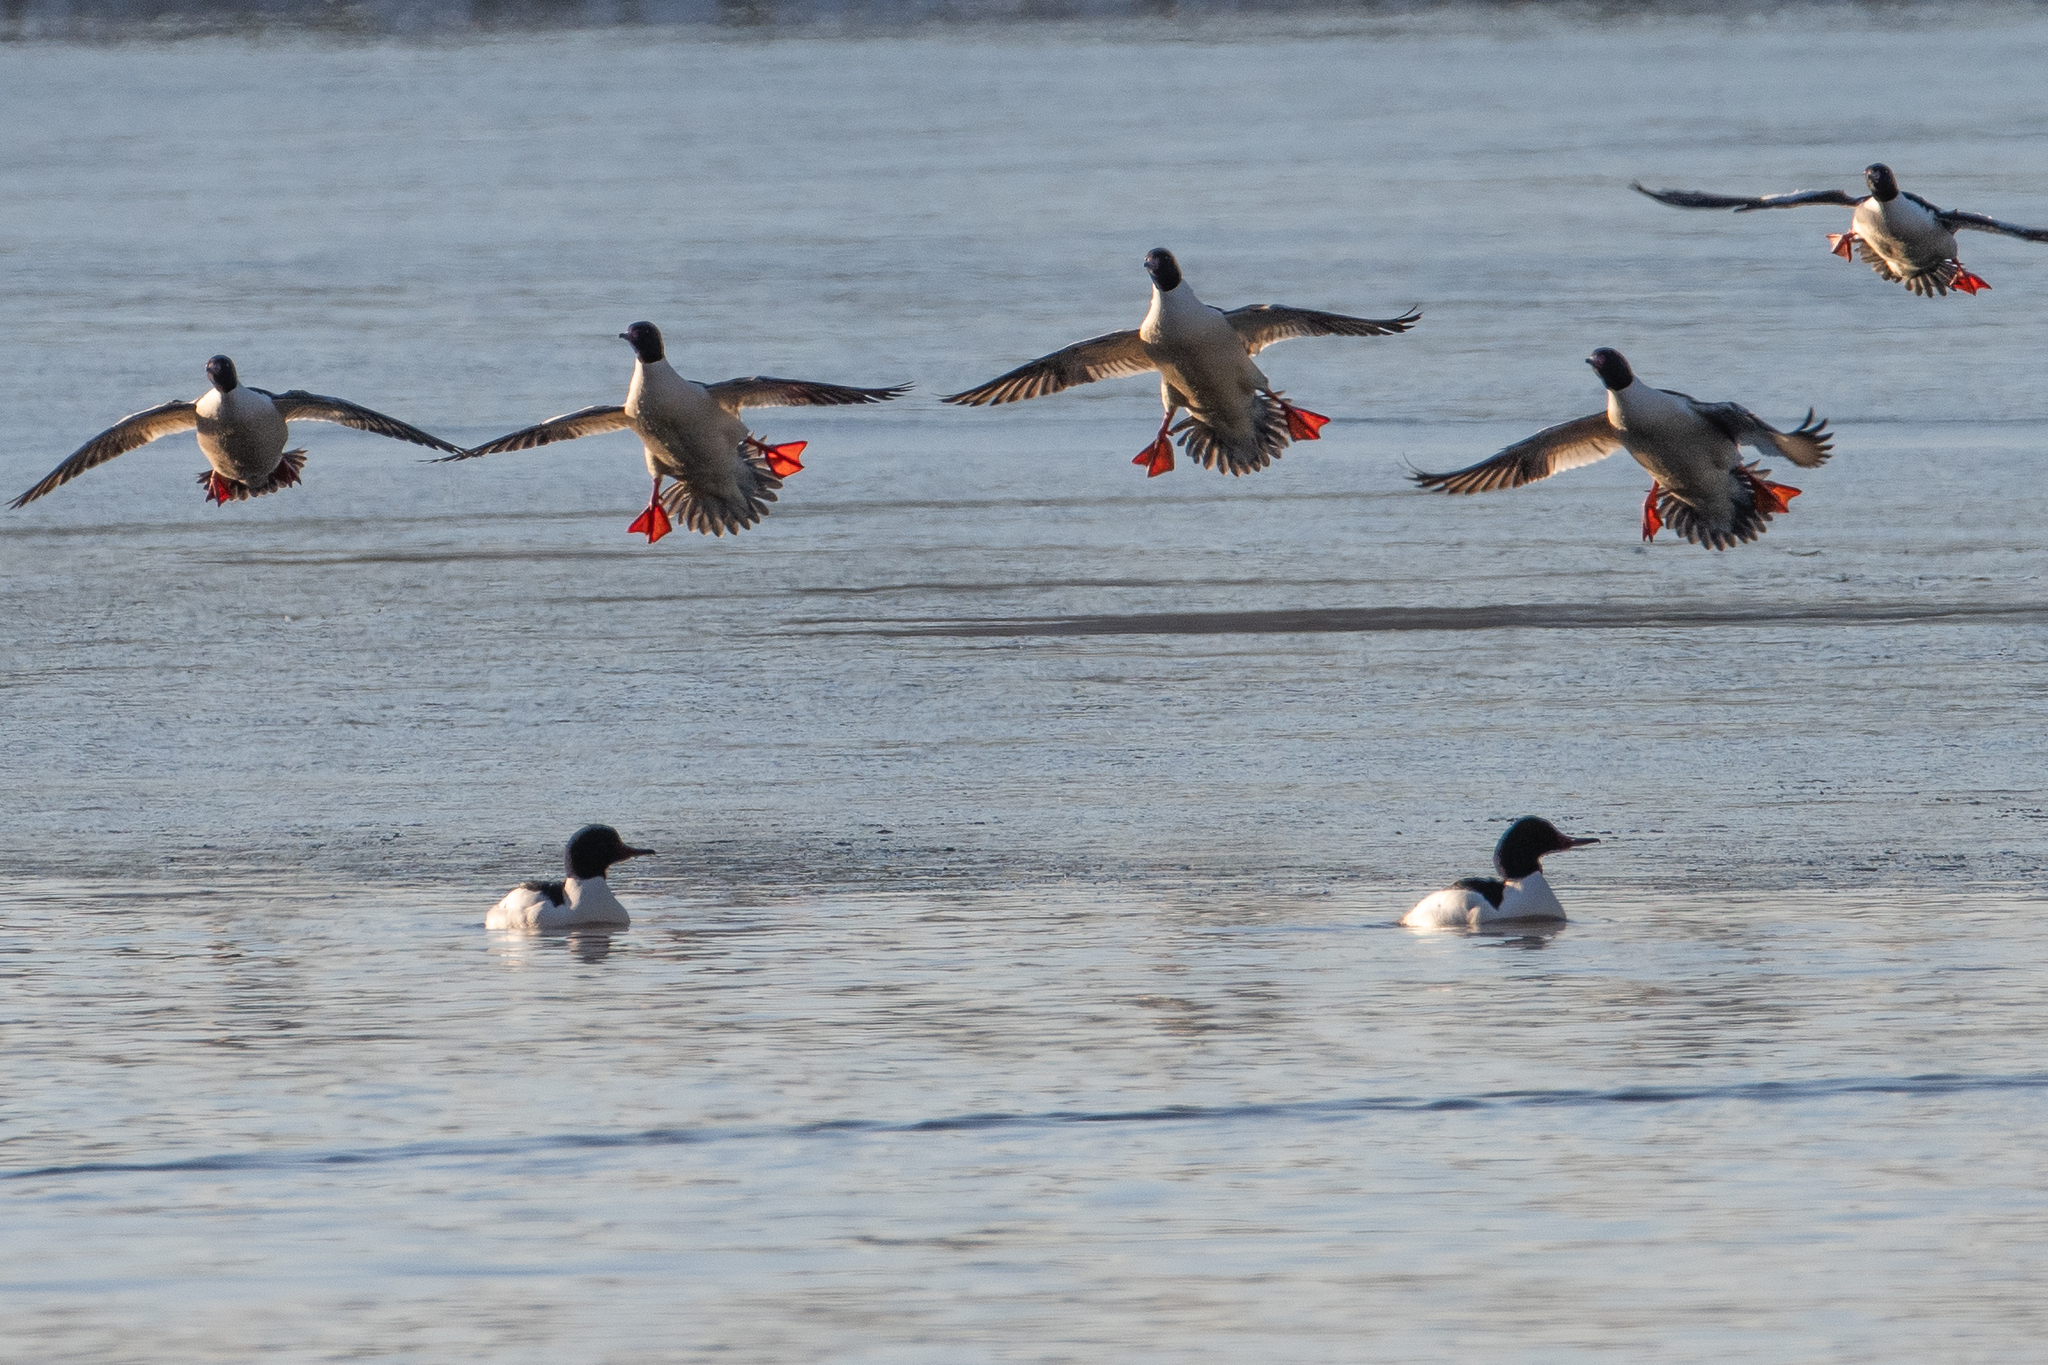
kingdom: Animalia
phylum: Chordata
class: Aves
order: Anseriformes
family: Anatidae
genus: Mergus
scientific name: Mergus merganser
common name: Common merganser
